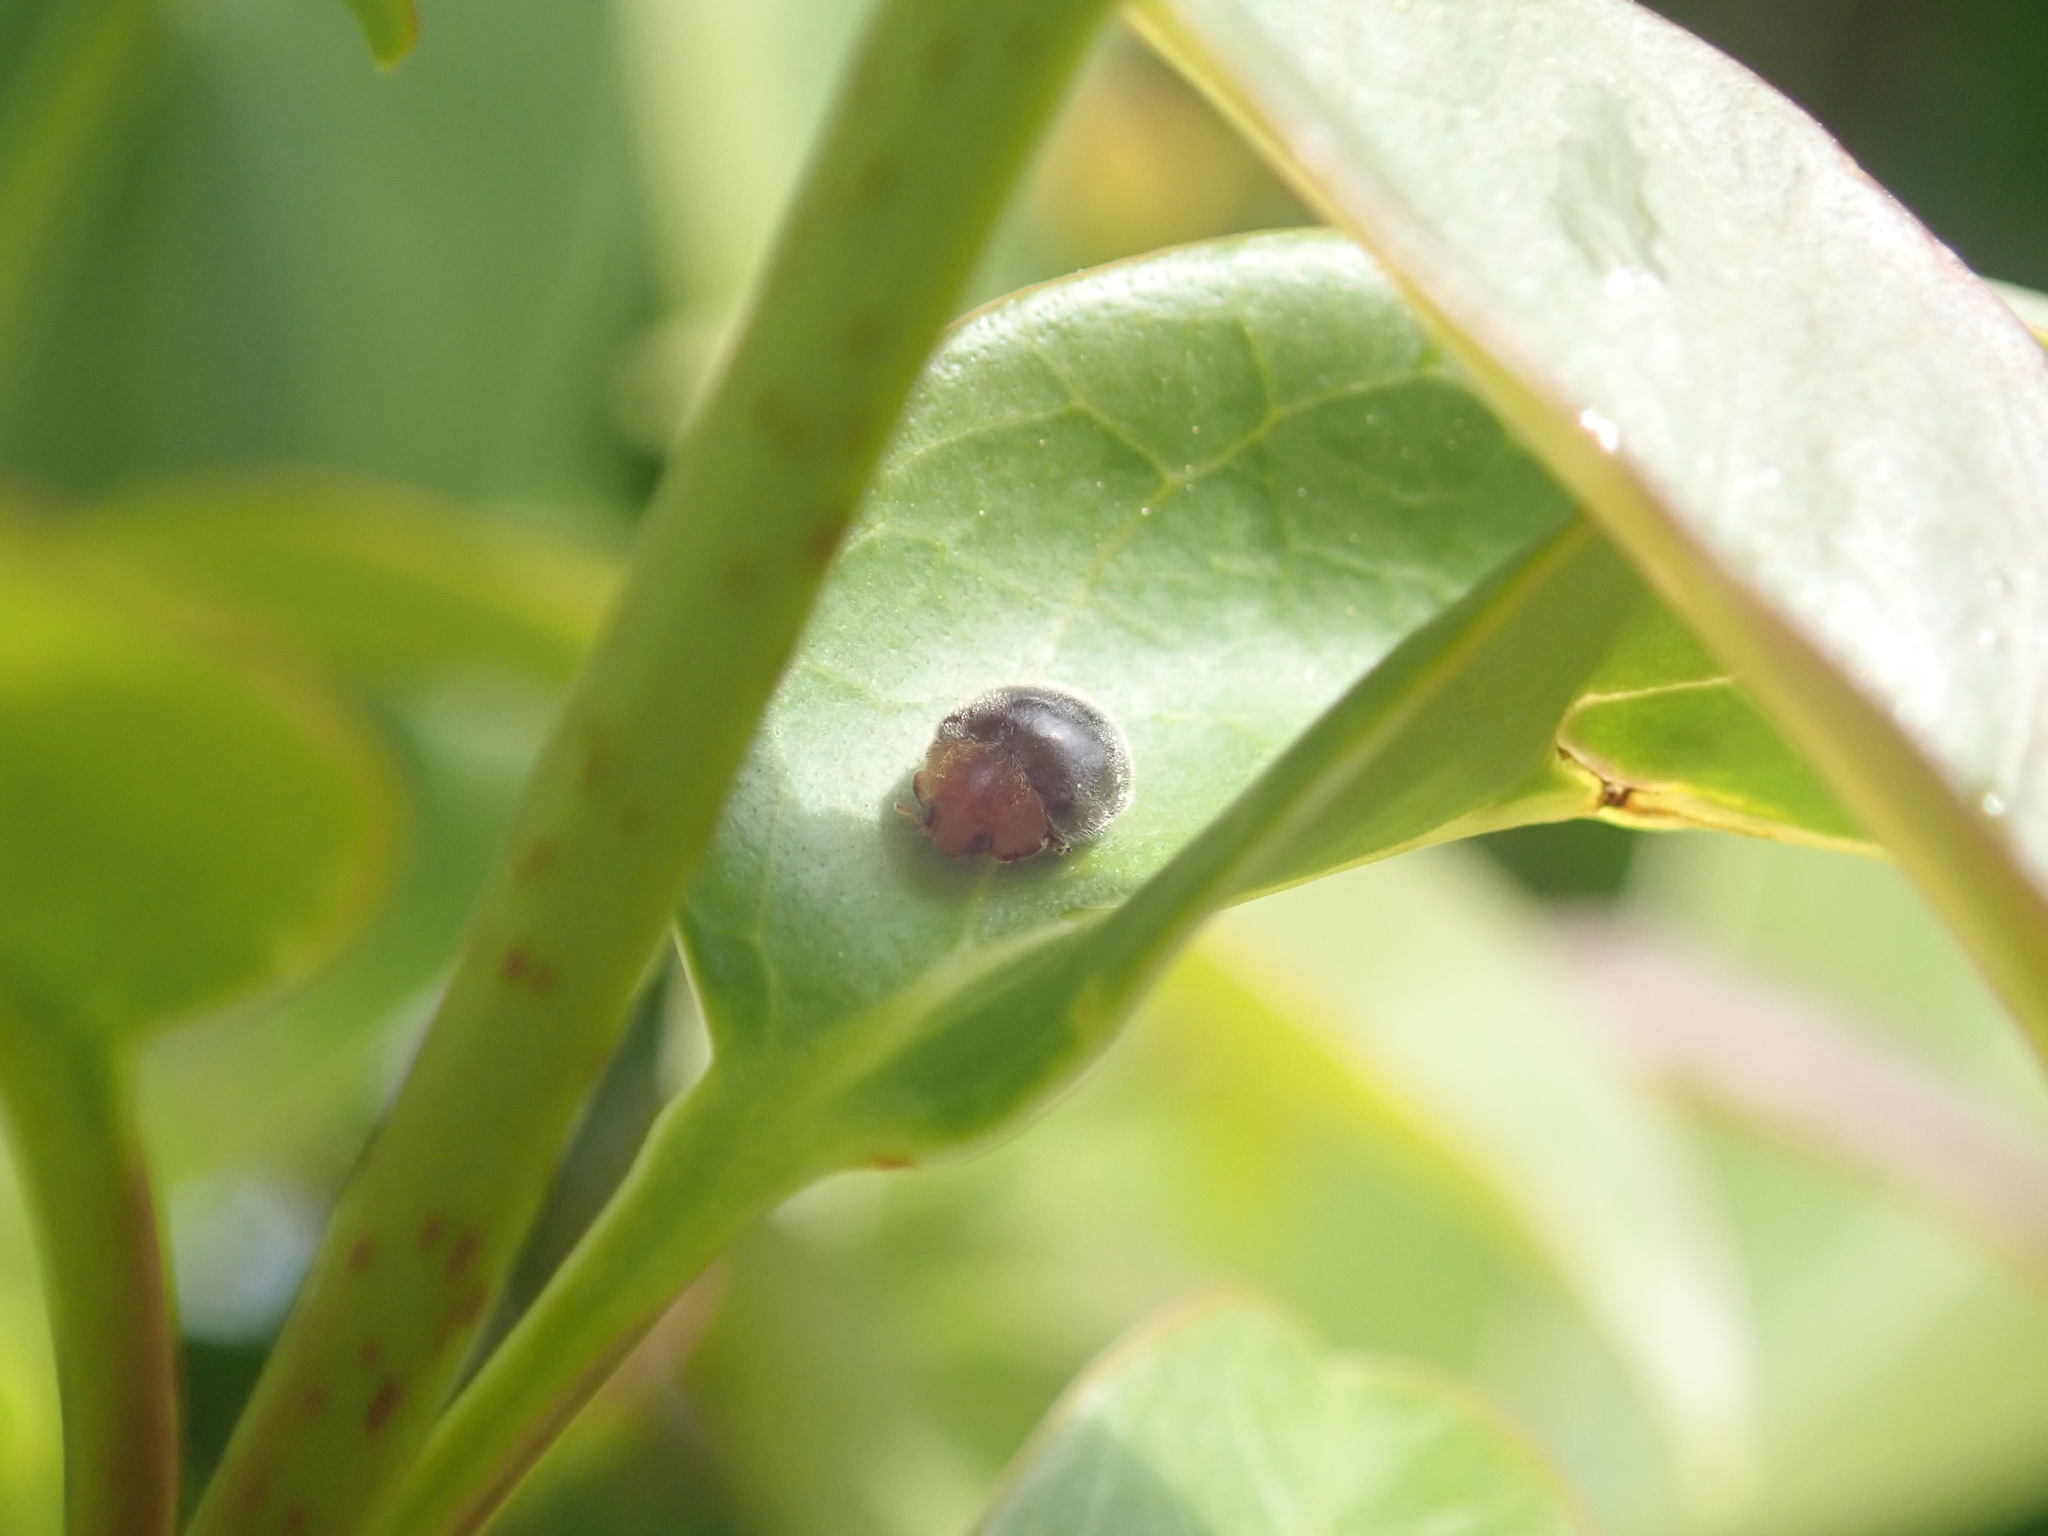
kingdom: Animalia
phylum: Arthropoda
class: Insecta
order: Coleoptera
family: Coccinellidae
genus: Cryptolaemus
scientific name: Cryptolaemus montrouzieri
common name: Mealybug destroyer
